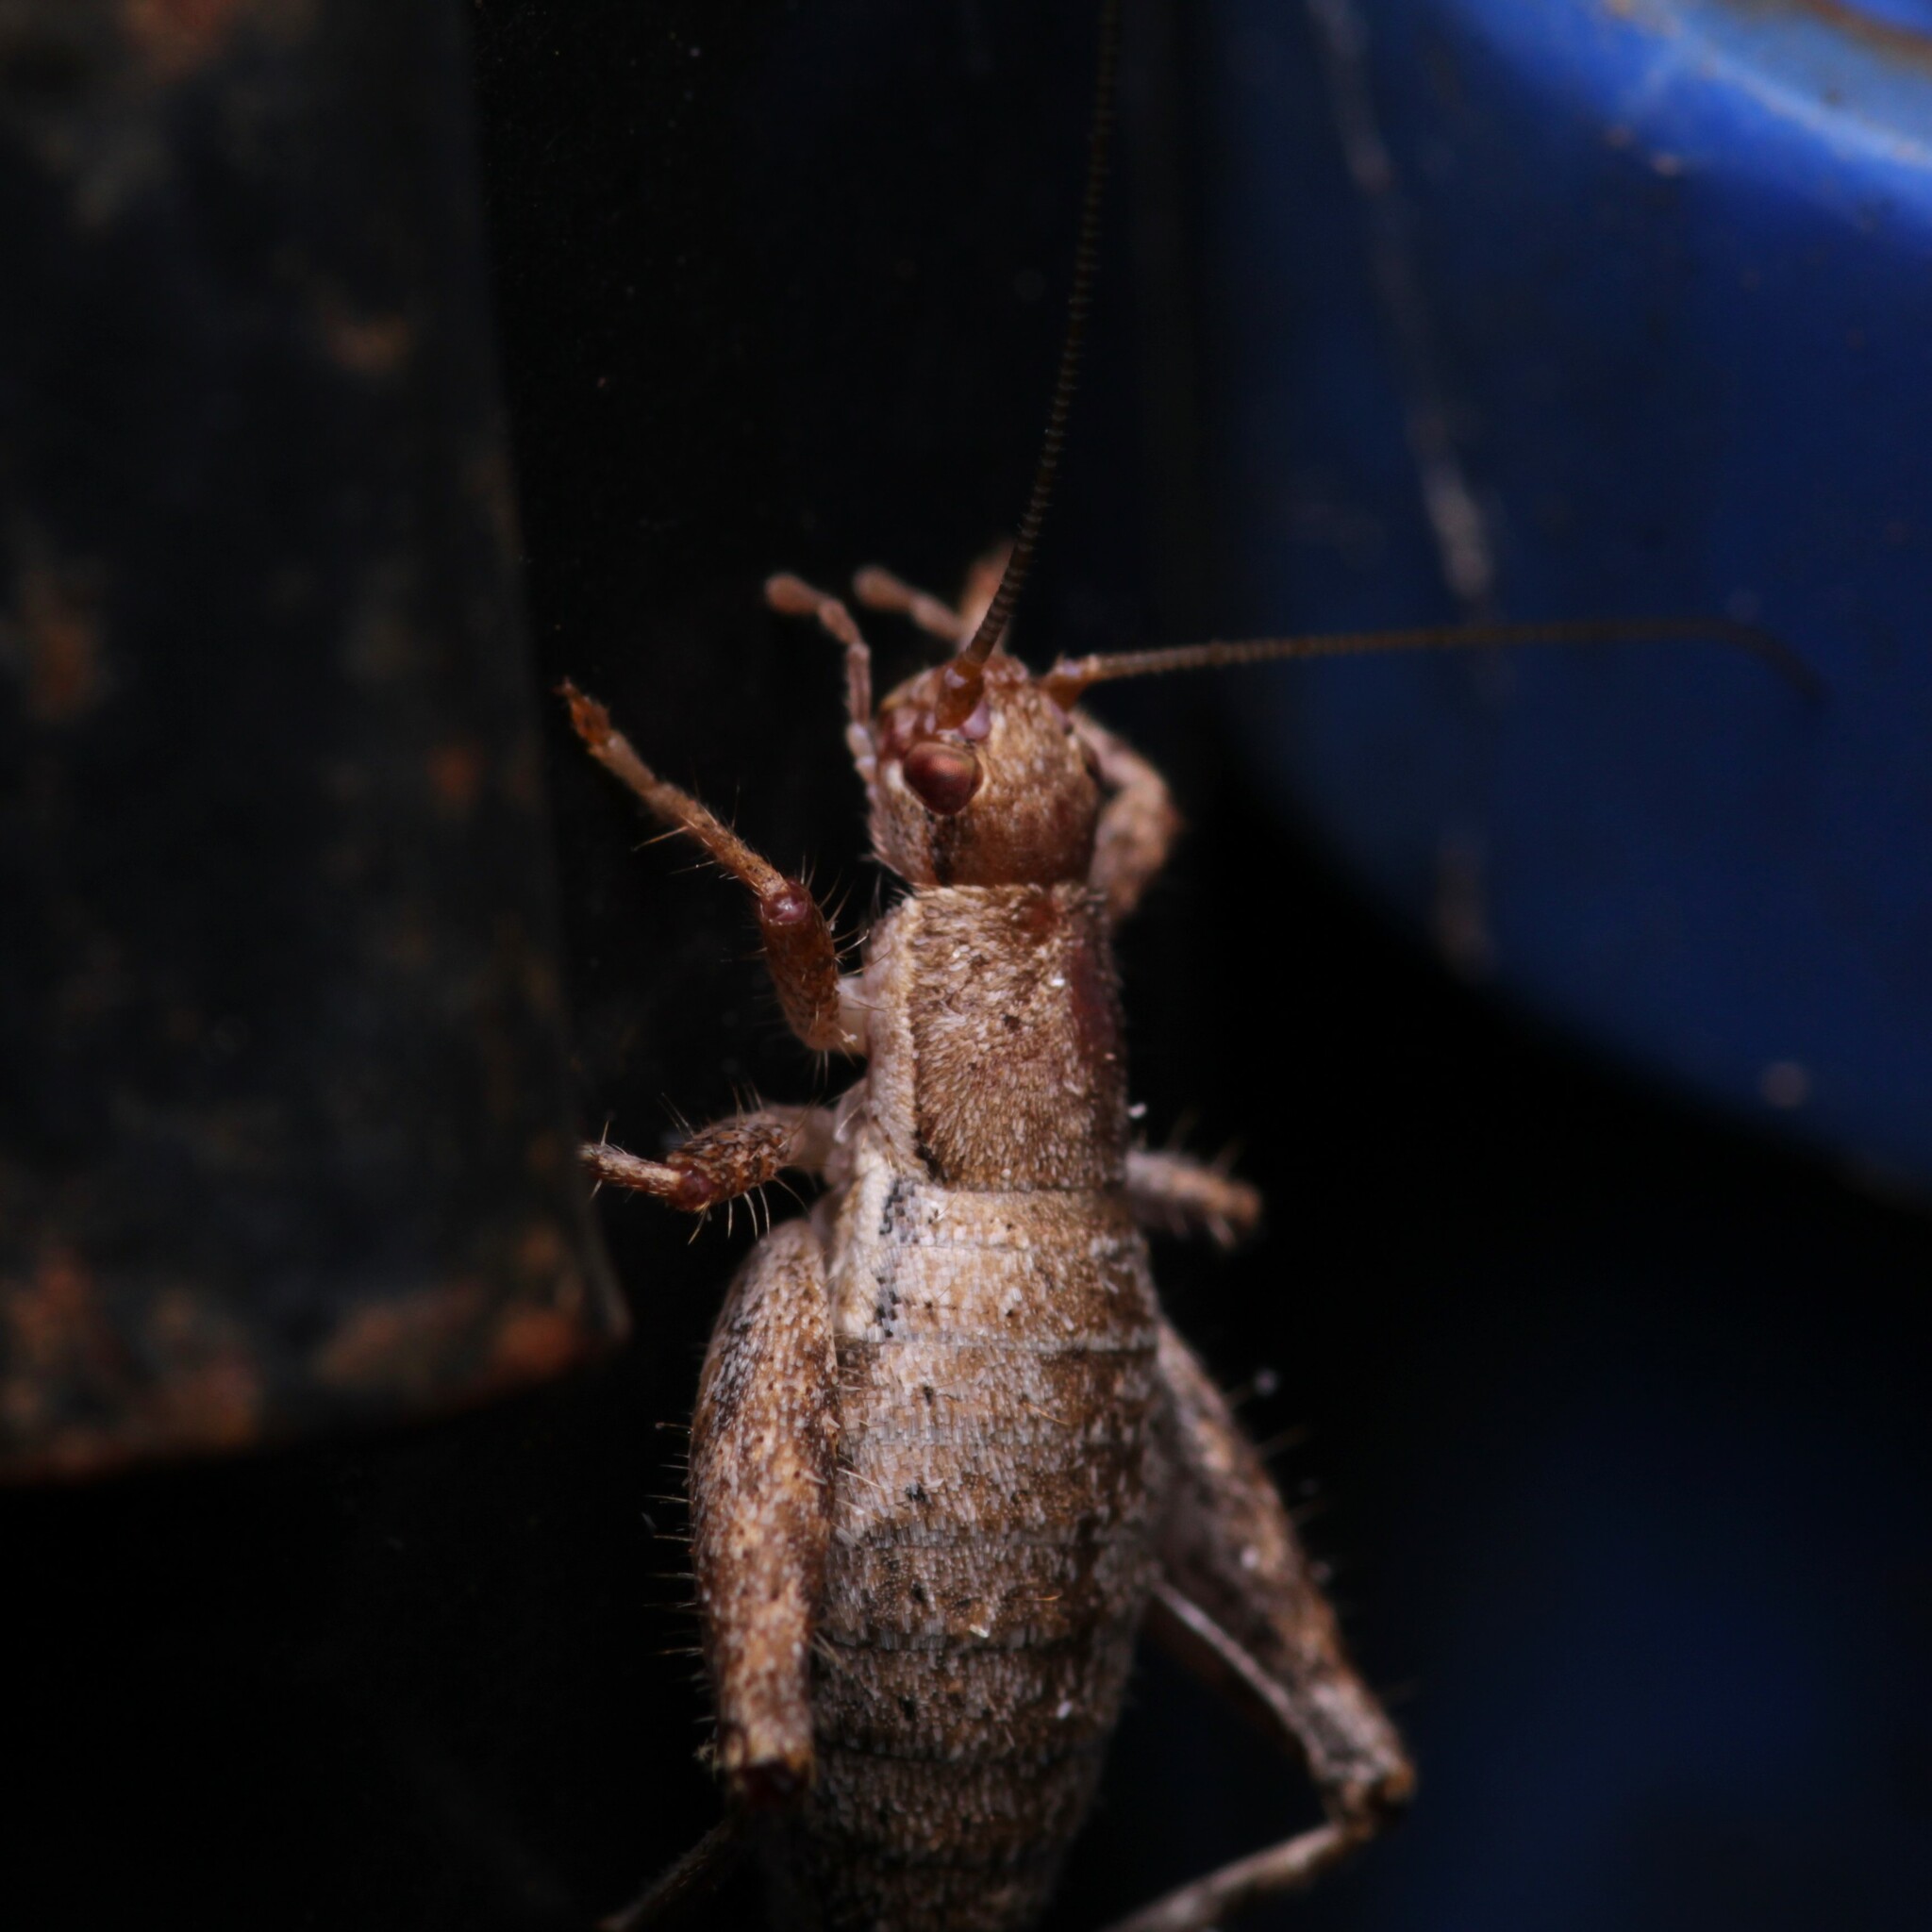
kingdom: Animalia
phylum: Arthropoda
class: Insecta
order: Orthoptera
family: Mogoplistidae
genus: Cycloptilum
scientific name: Cycloptilum slossoni
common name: Slosson's scaly cricket
